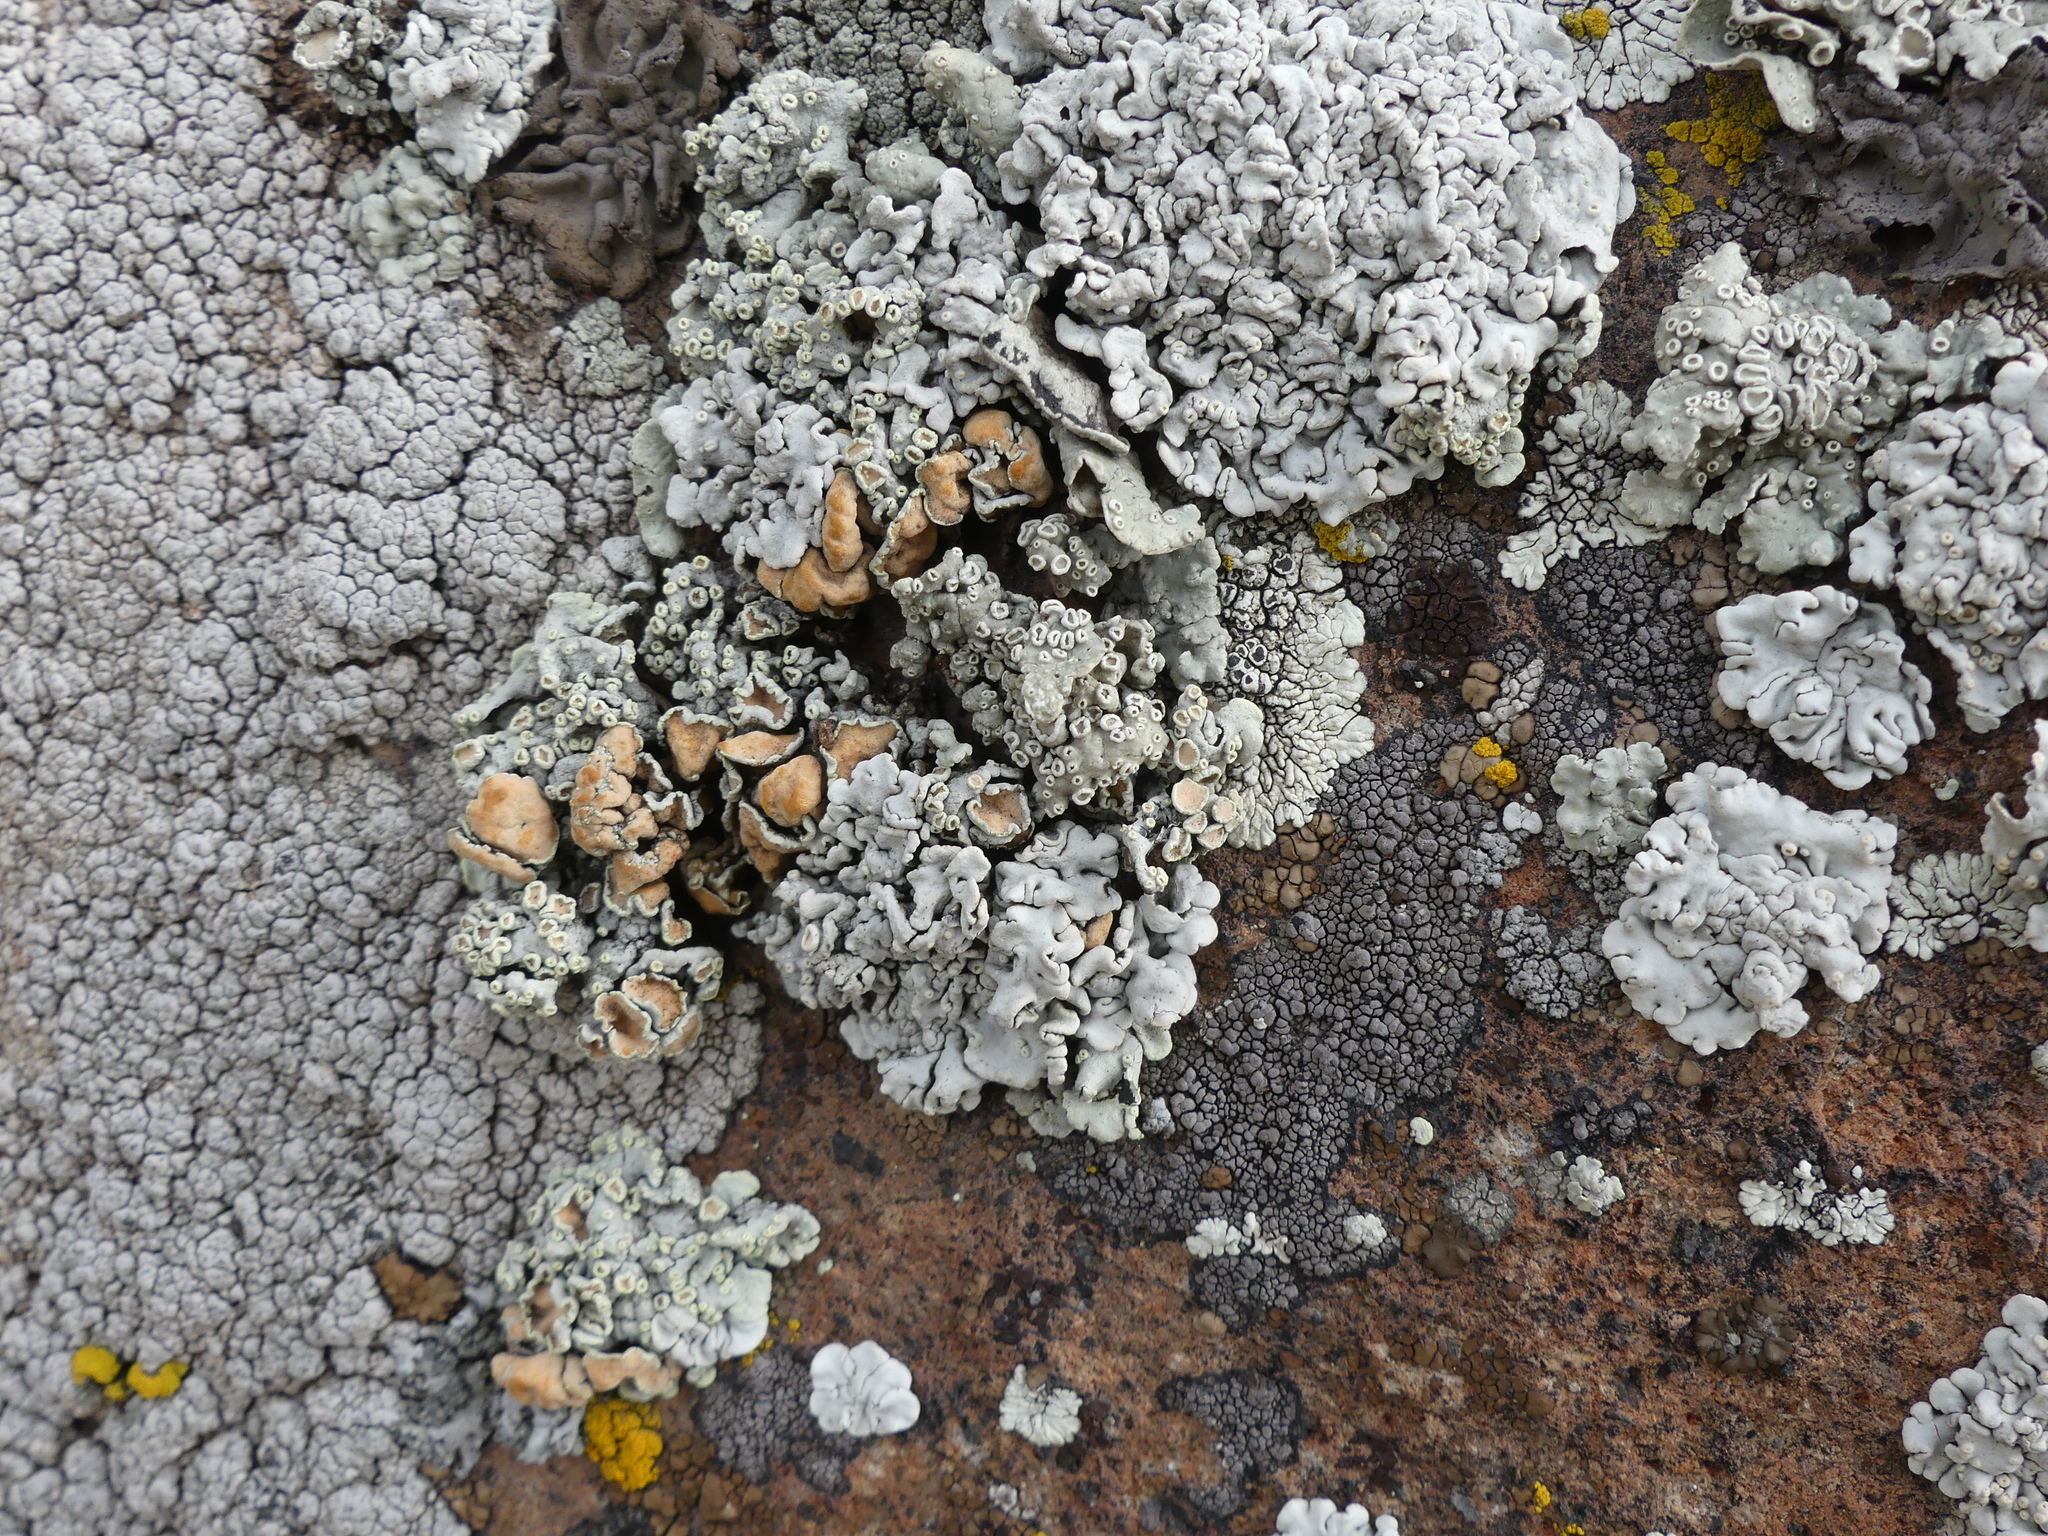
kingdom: Fungi
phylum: Ascomycota
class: Lecanoromycetes
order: Lecanorales
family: Lecanoraceae
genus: Omphalodina
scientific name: Omphalodina chrysoleuca
